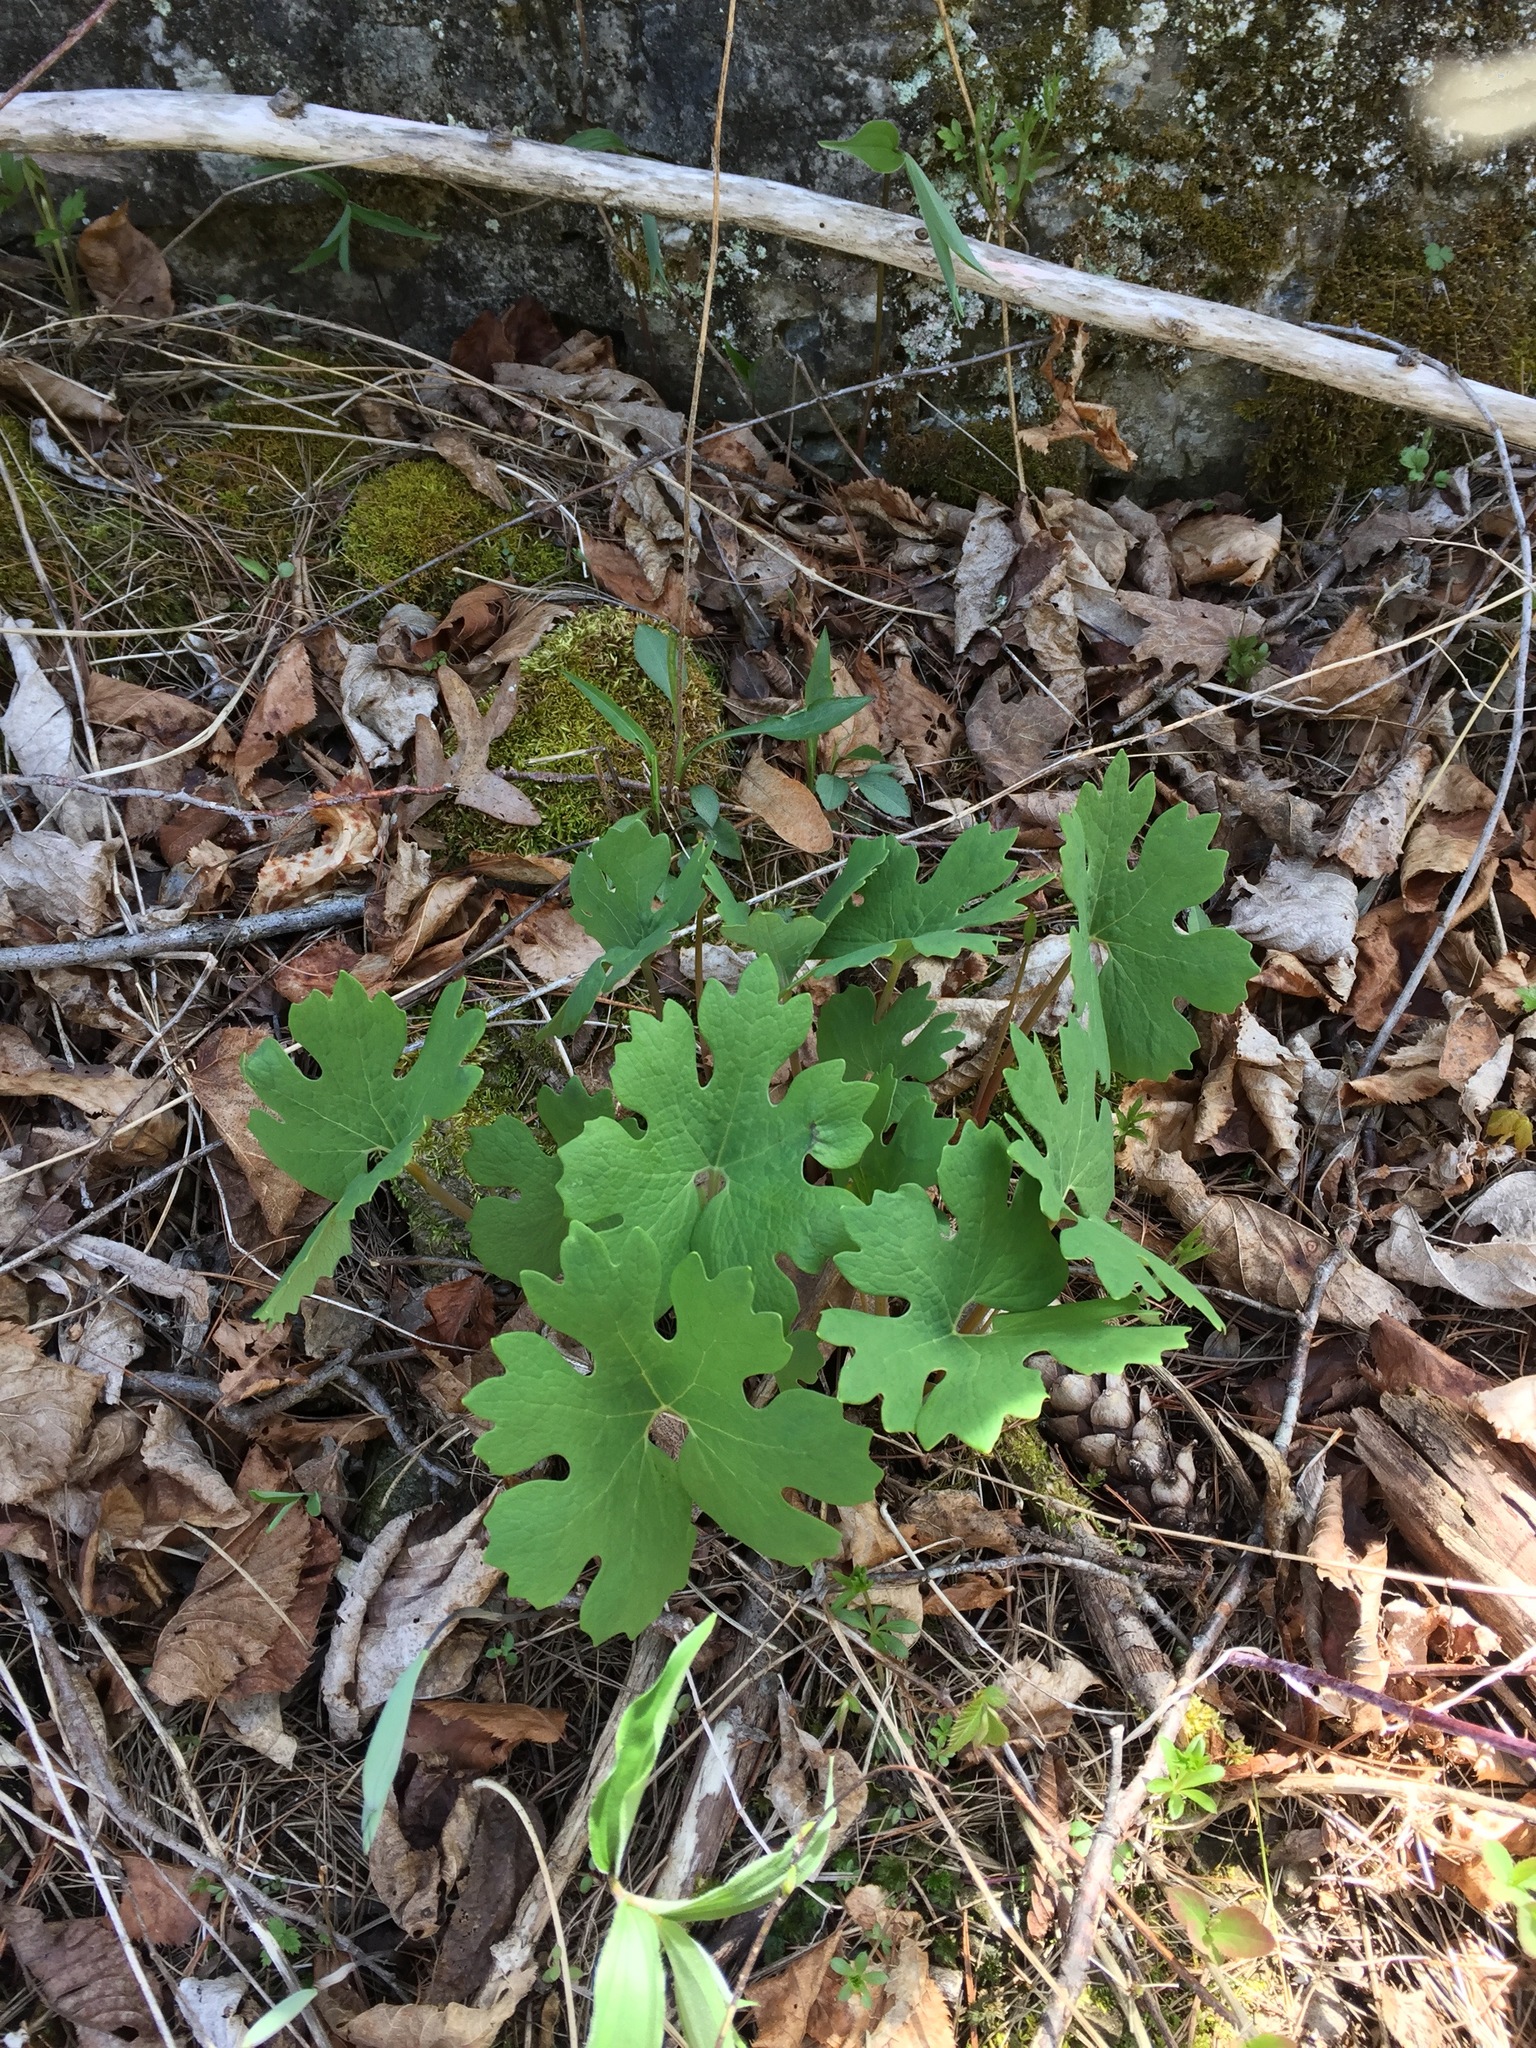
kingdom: Plantae
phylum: Tracheophyta
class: Magnoliopsida
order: Ranunculales
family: Papaveraceae
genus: Sanguinaria
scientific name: Sanguinaria canadensis
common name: Bloodroot
